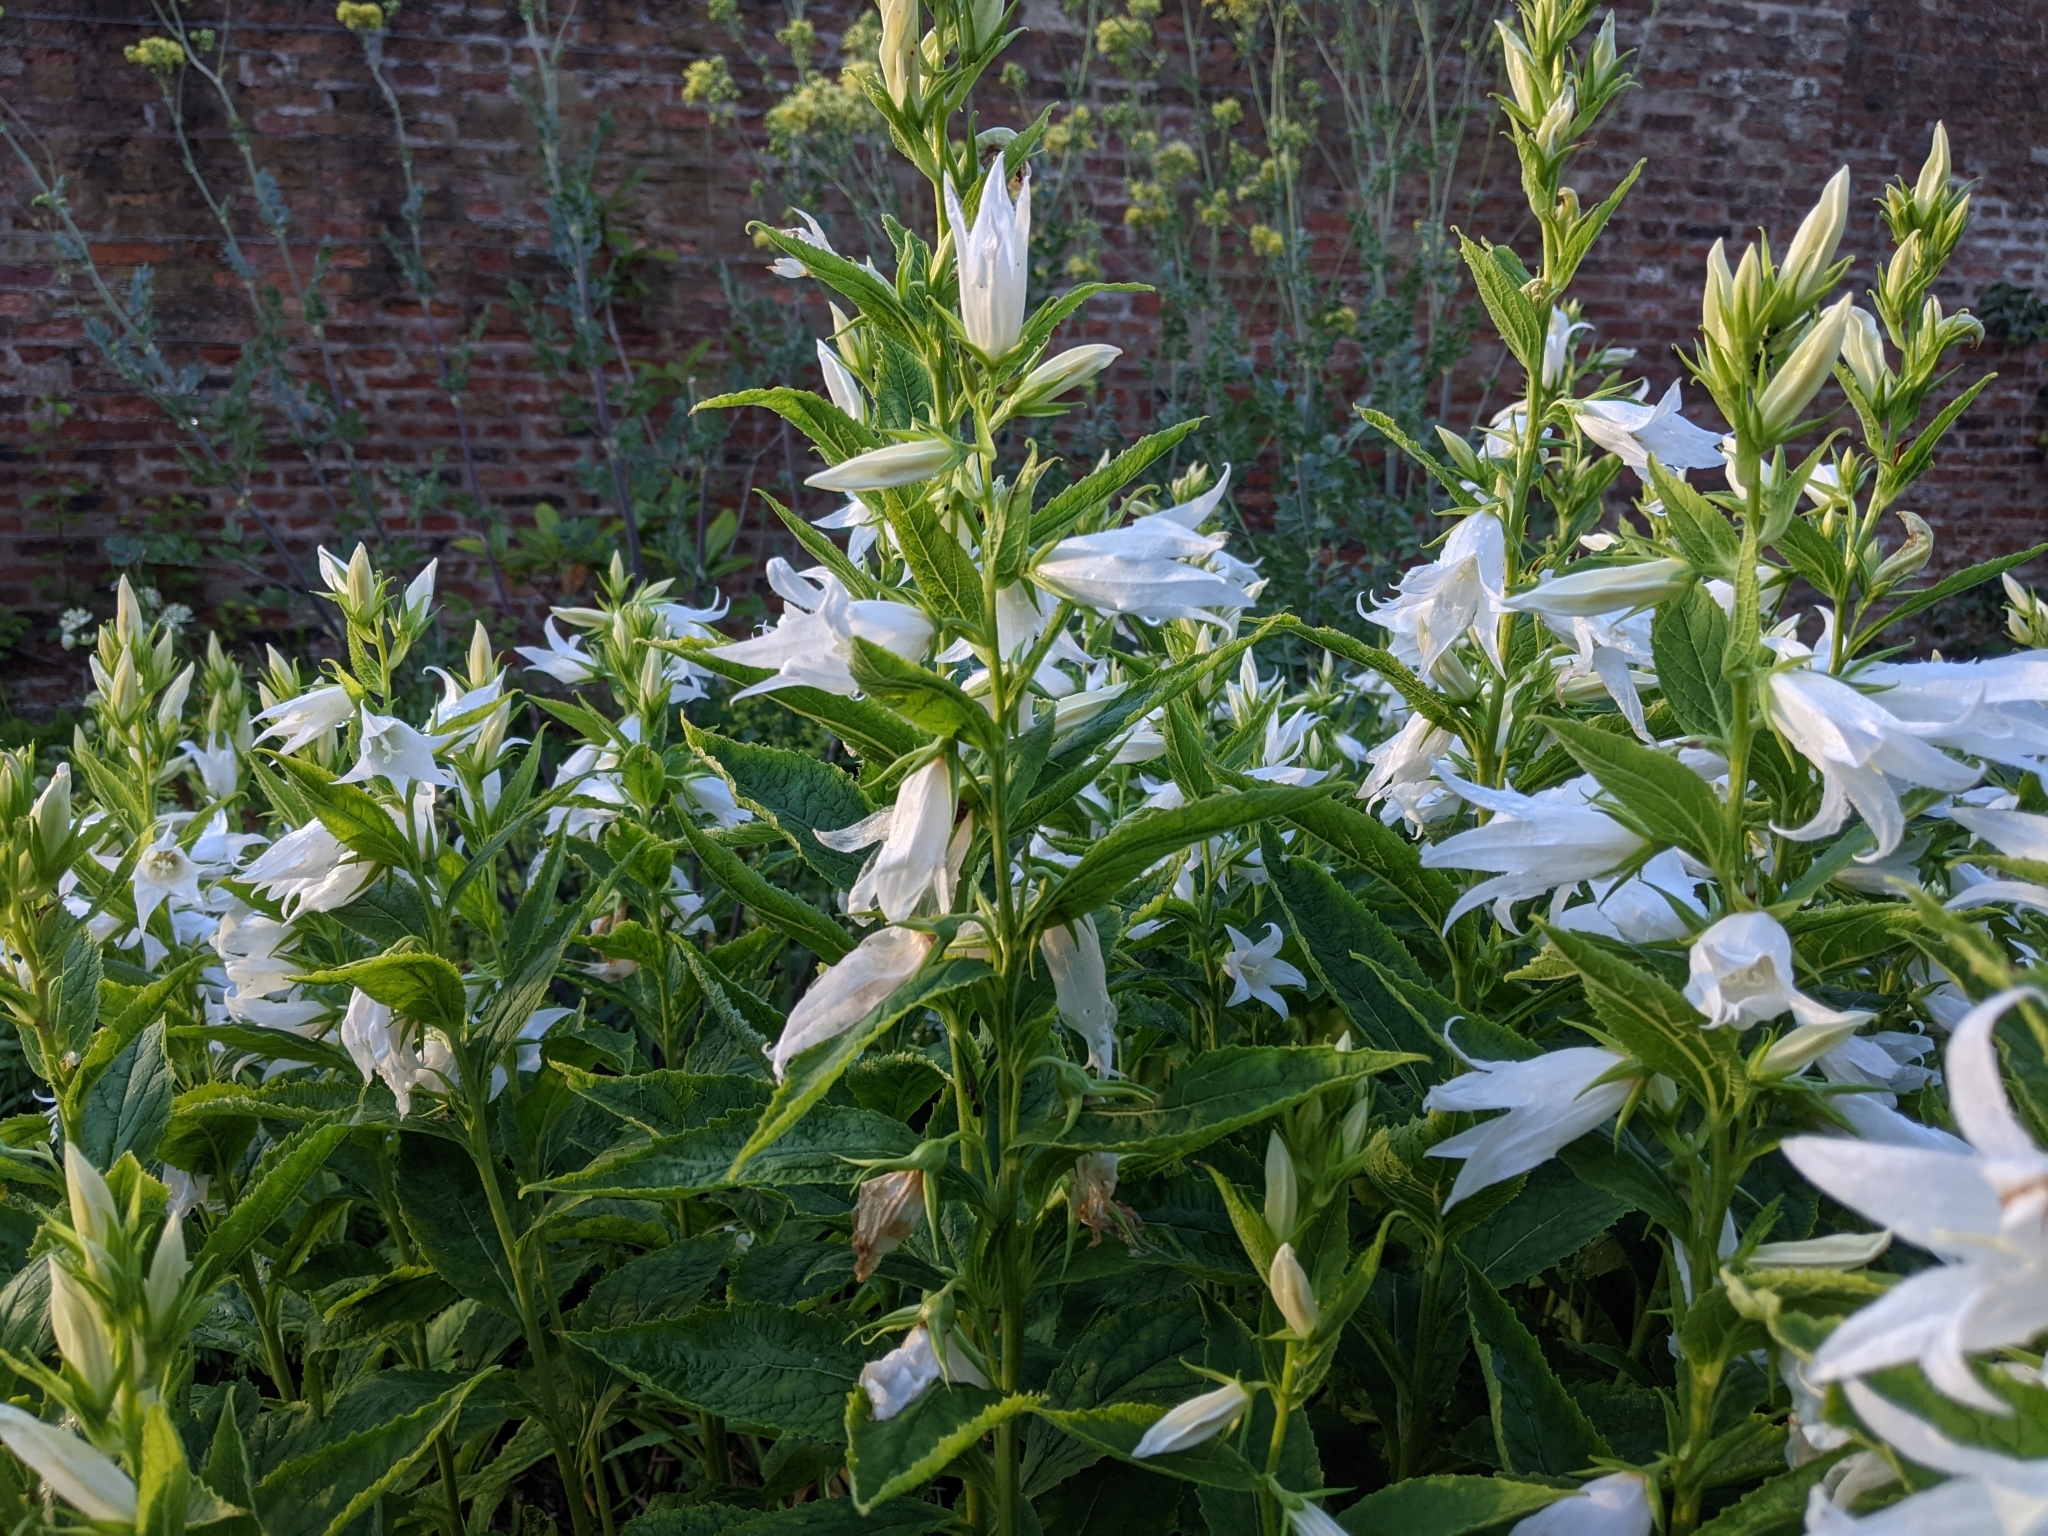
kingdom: Plantae
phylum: Tracheophyta
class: Magnoliopsida
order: Asterales
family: Campanulaceae
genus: Campanula
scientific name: Campanula latifolia
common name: Giant bellflower
